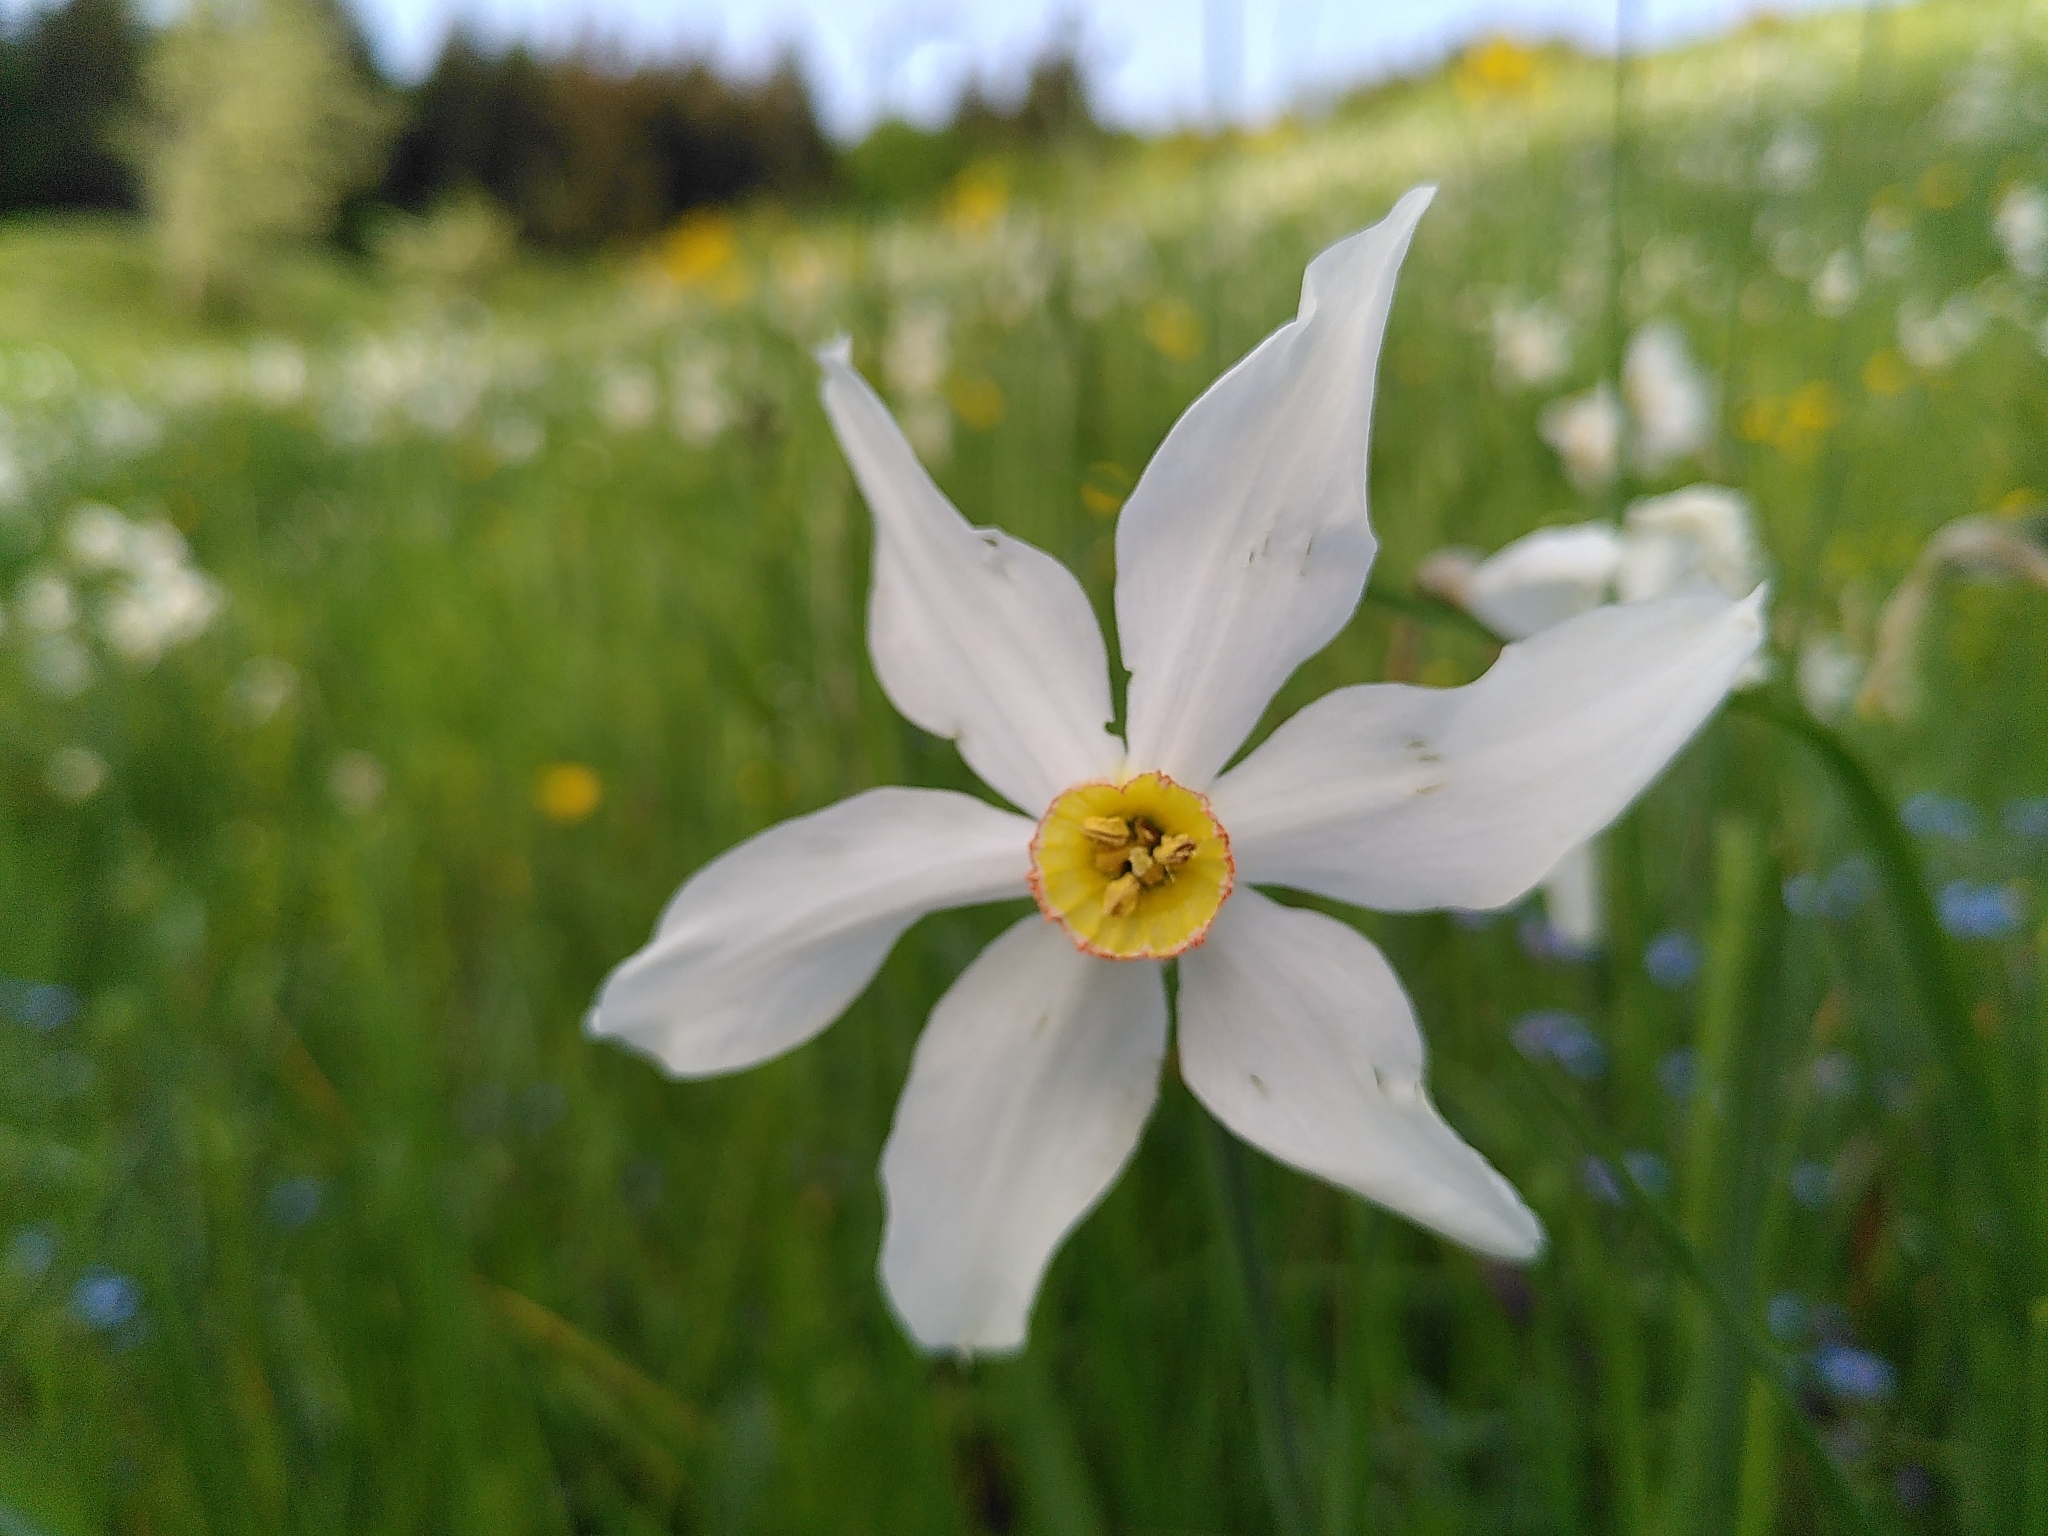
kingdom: Plantae
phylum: Tracheophyta
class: Liliopsida
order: Asparagales
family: Amaryllidaceae
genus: Narcissus
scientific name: Narcissus poeticus
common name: Pheasant's-eye daffodil
